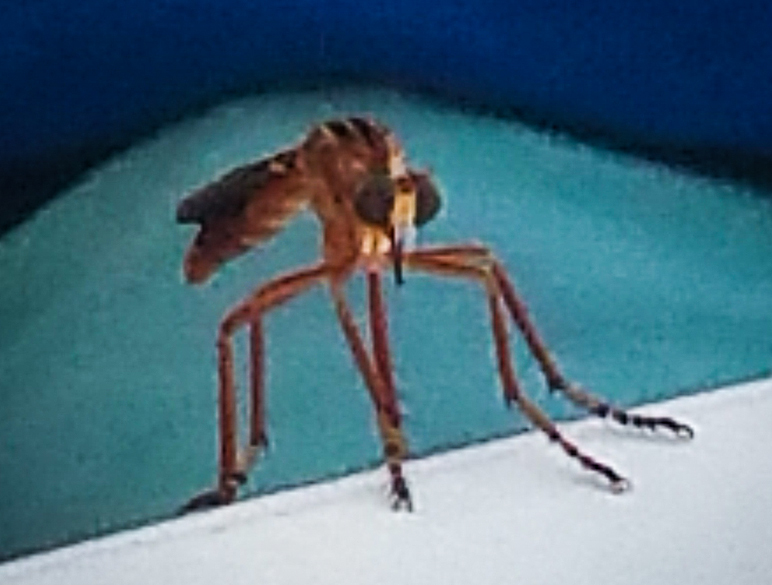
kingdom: Animalia
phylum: Arthropoda
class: Insecta
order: Diptera
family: Asilidae
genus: Diogmites
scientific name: Diogmites neoternatus
